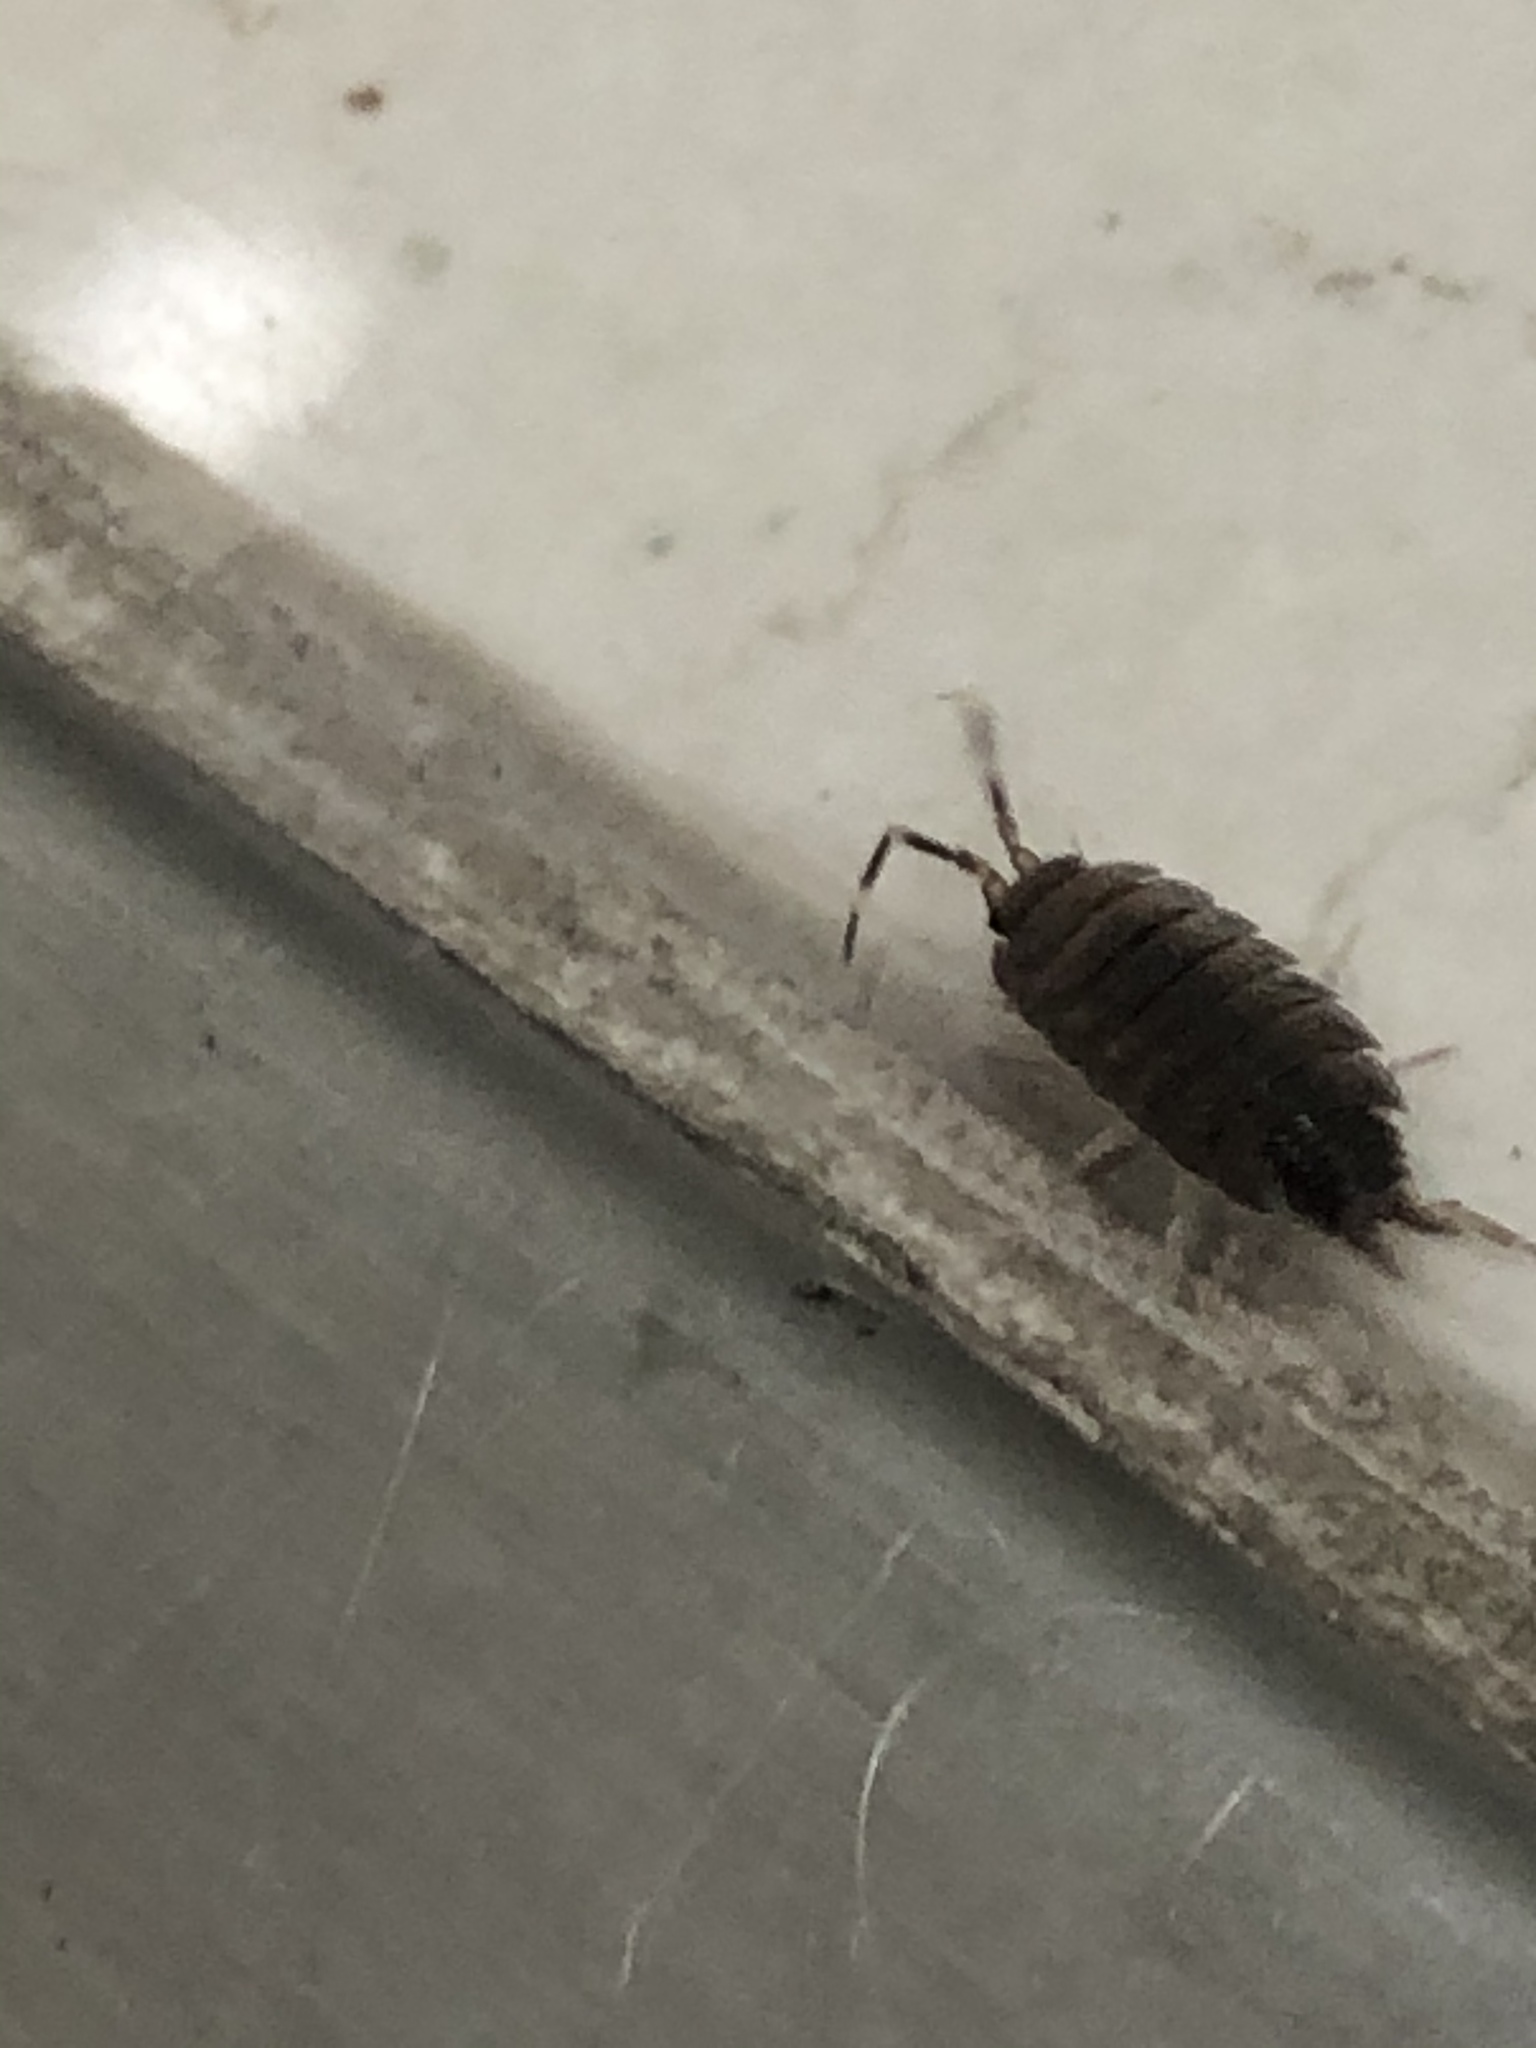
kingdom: Animalia
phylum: Arthropoda
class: Malacostraca
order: Isopoda
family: Porcellionidae
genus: Porcellionides
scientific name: Porcellionides pruinosus
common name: Plum woodlouse
